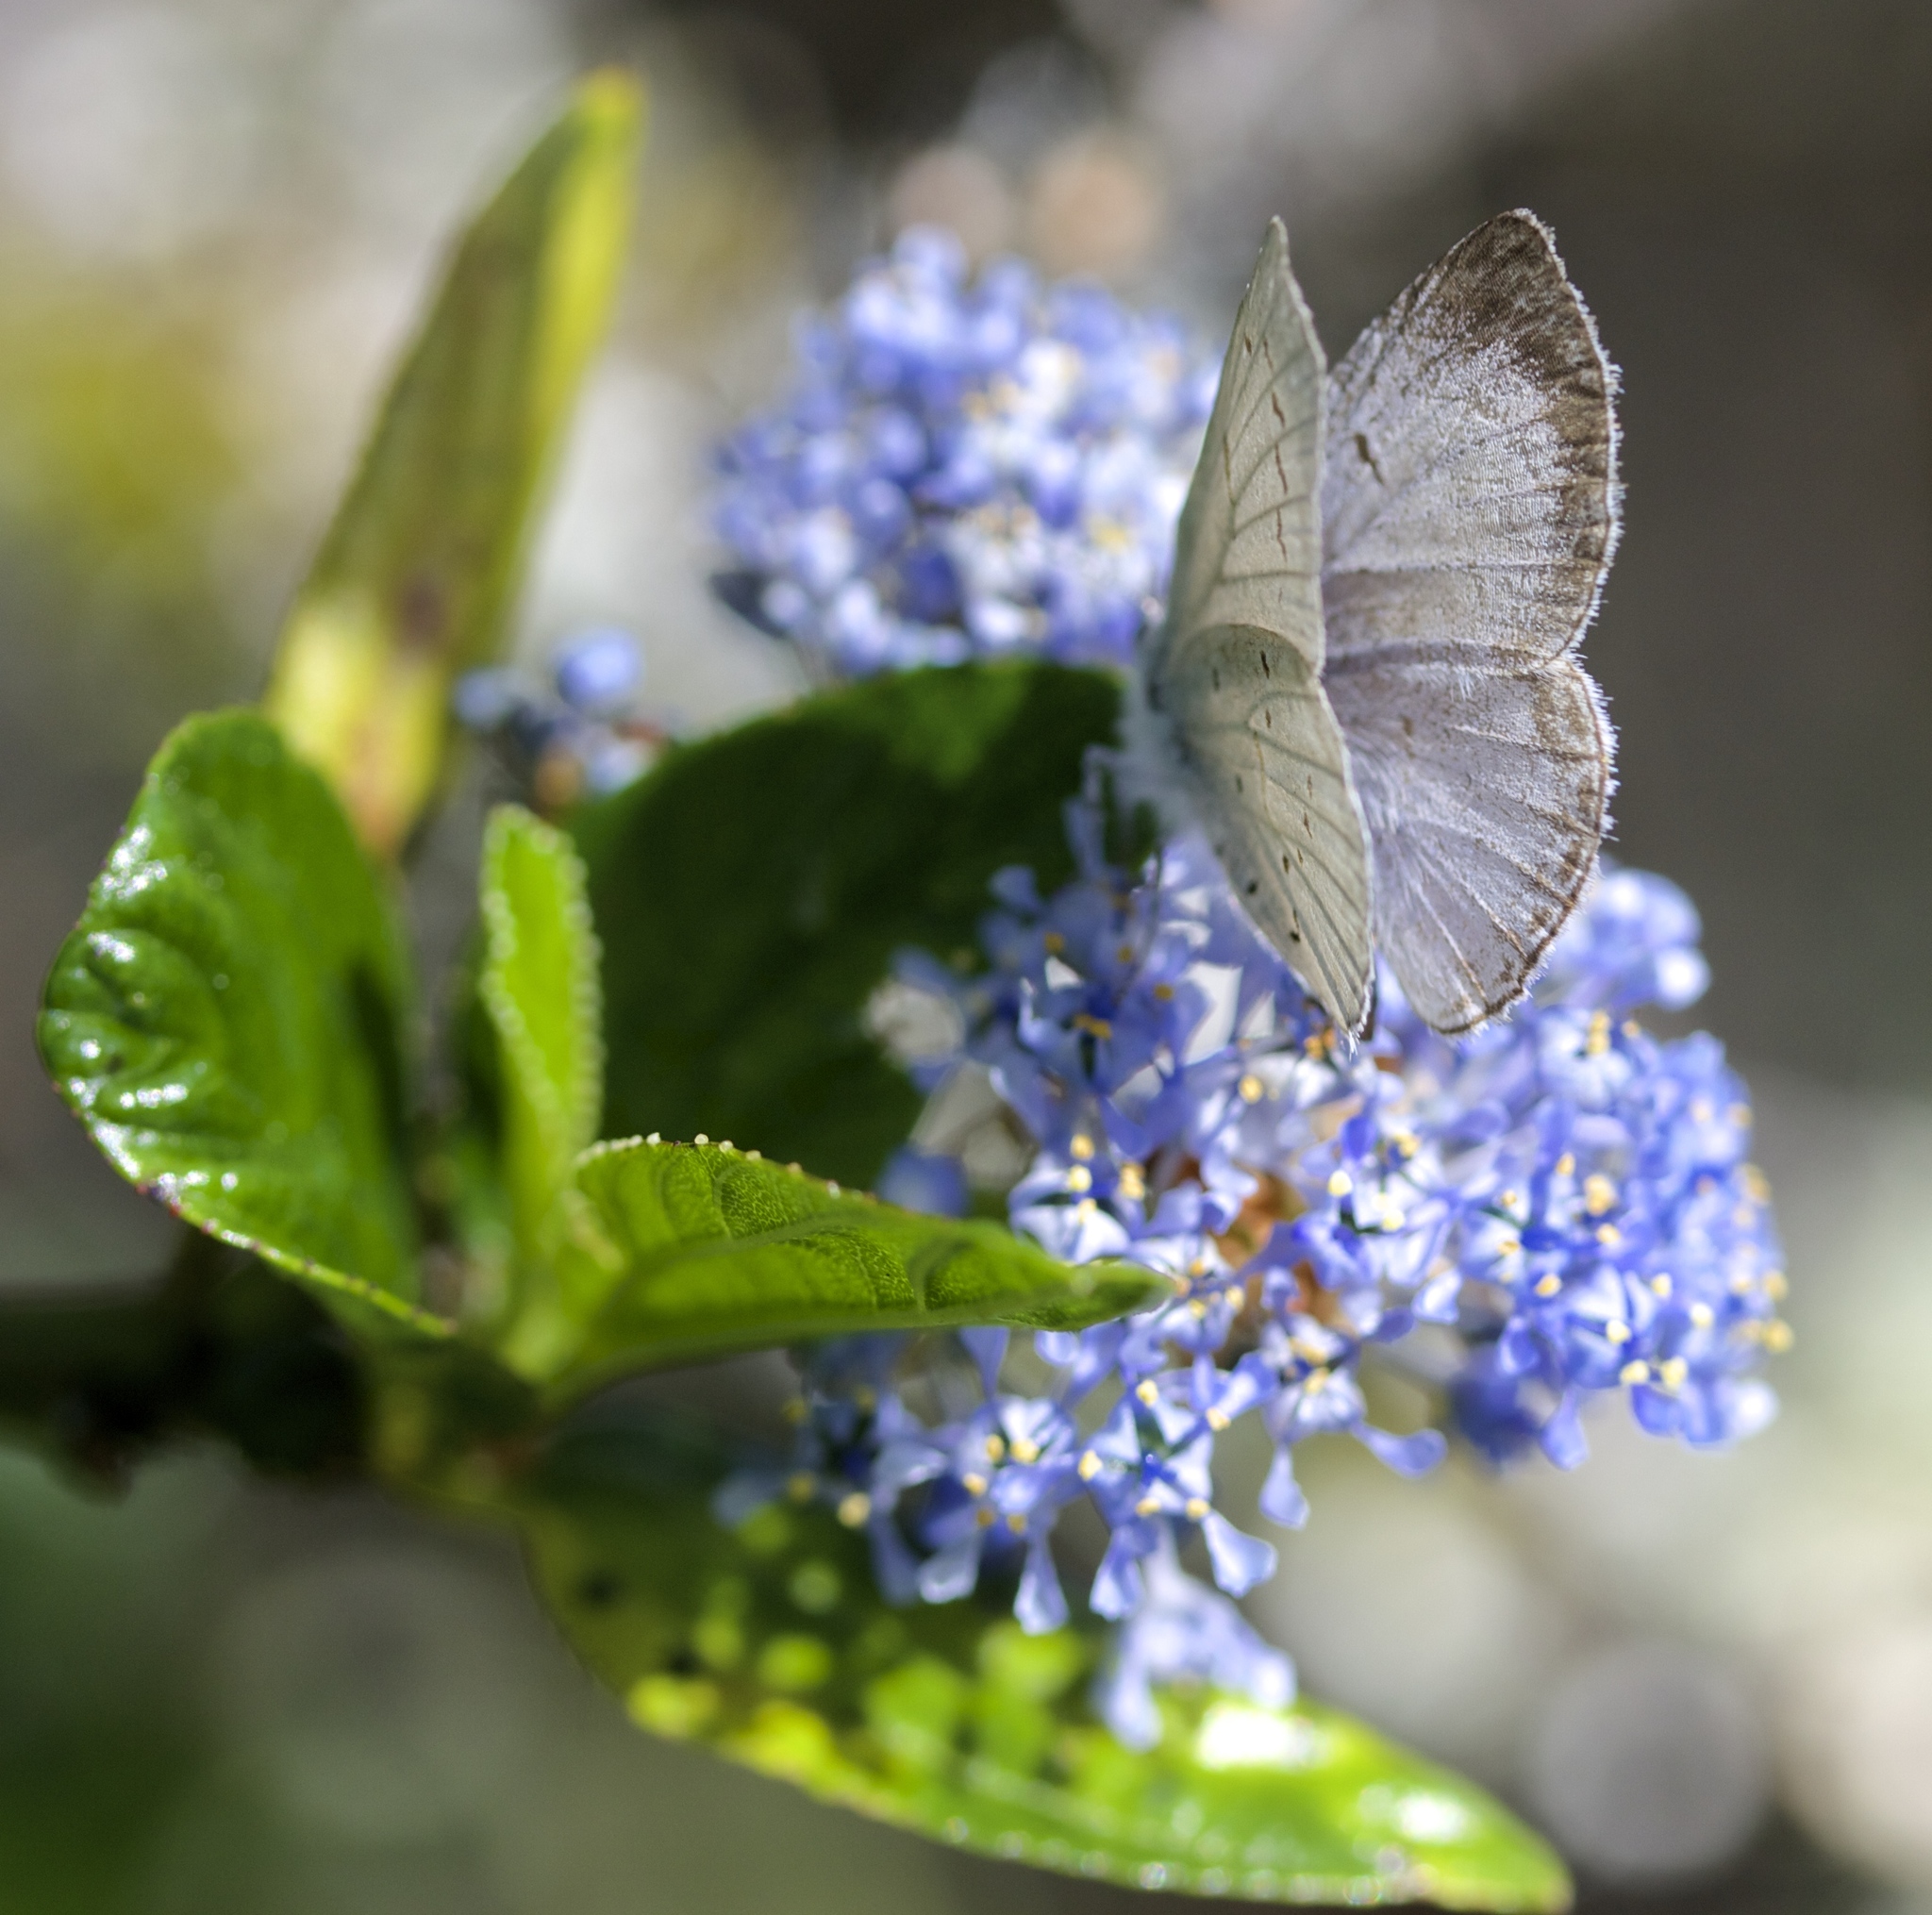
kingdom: Animalia
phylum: Arthropoda
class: Insecta
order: Lepidoptera
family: Lycaenidae
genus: Celastrina
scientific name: Celastrina ladon
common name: Spring azure
